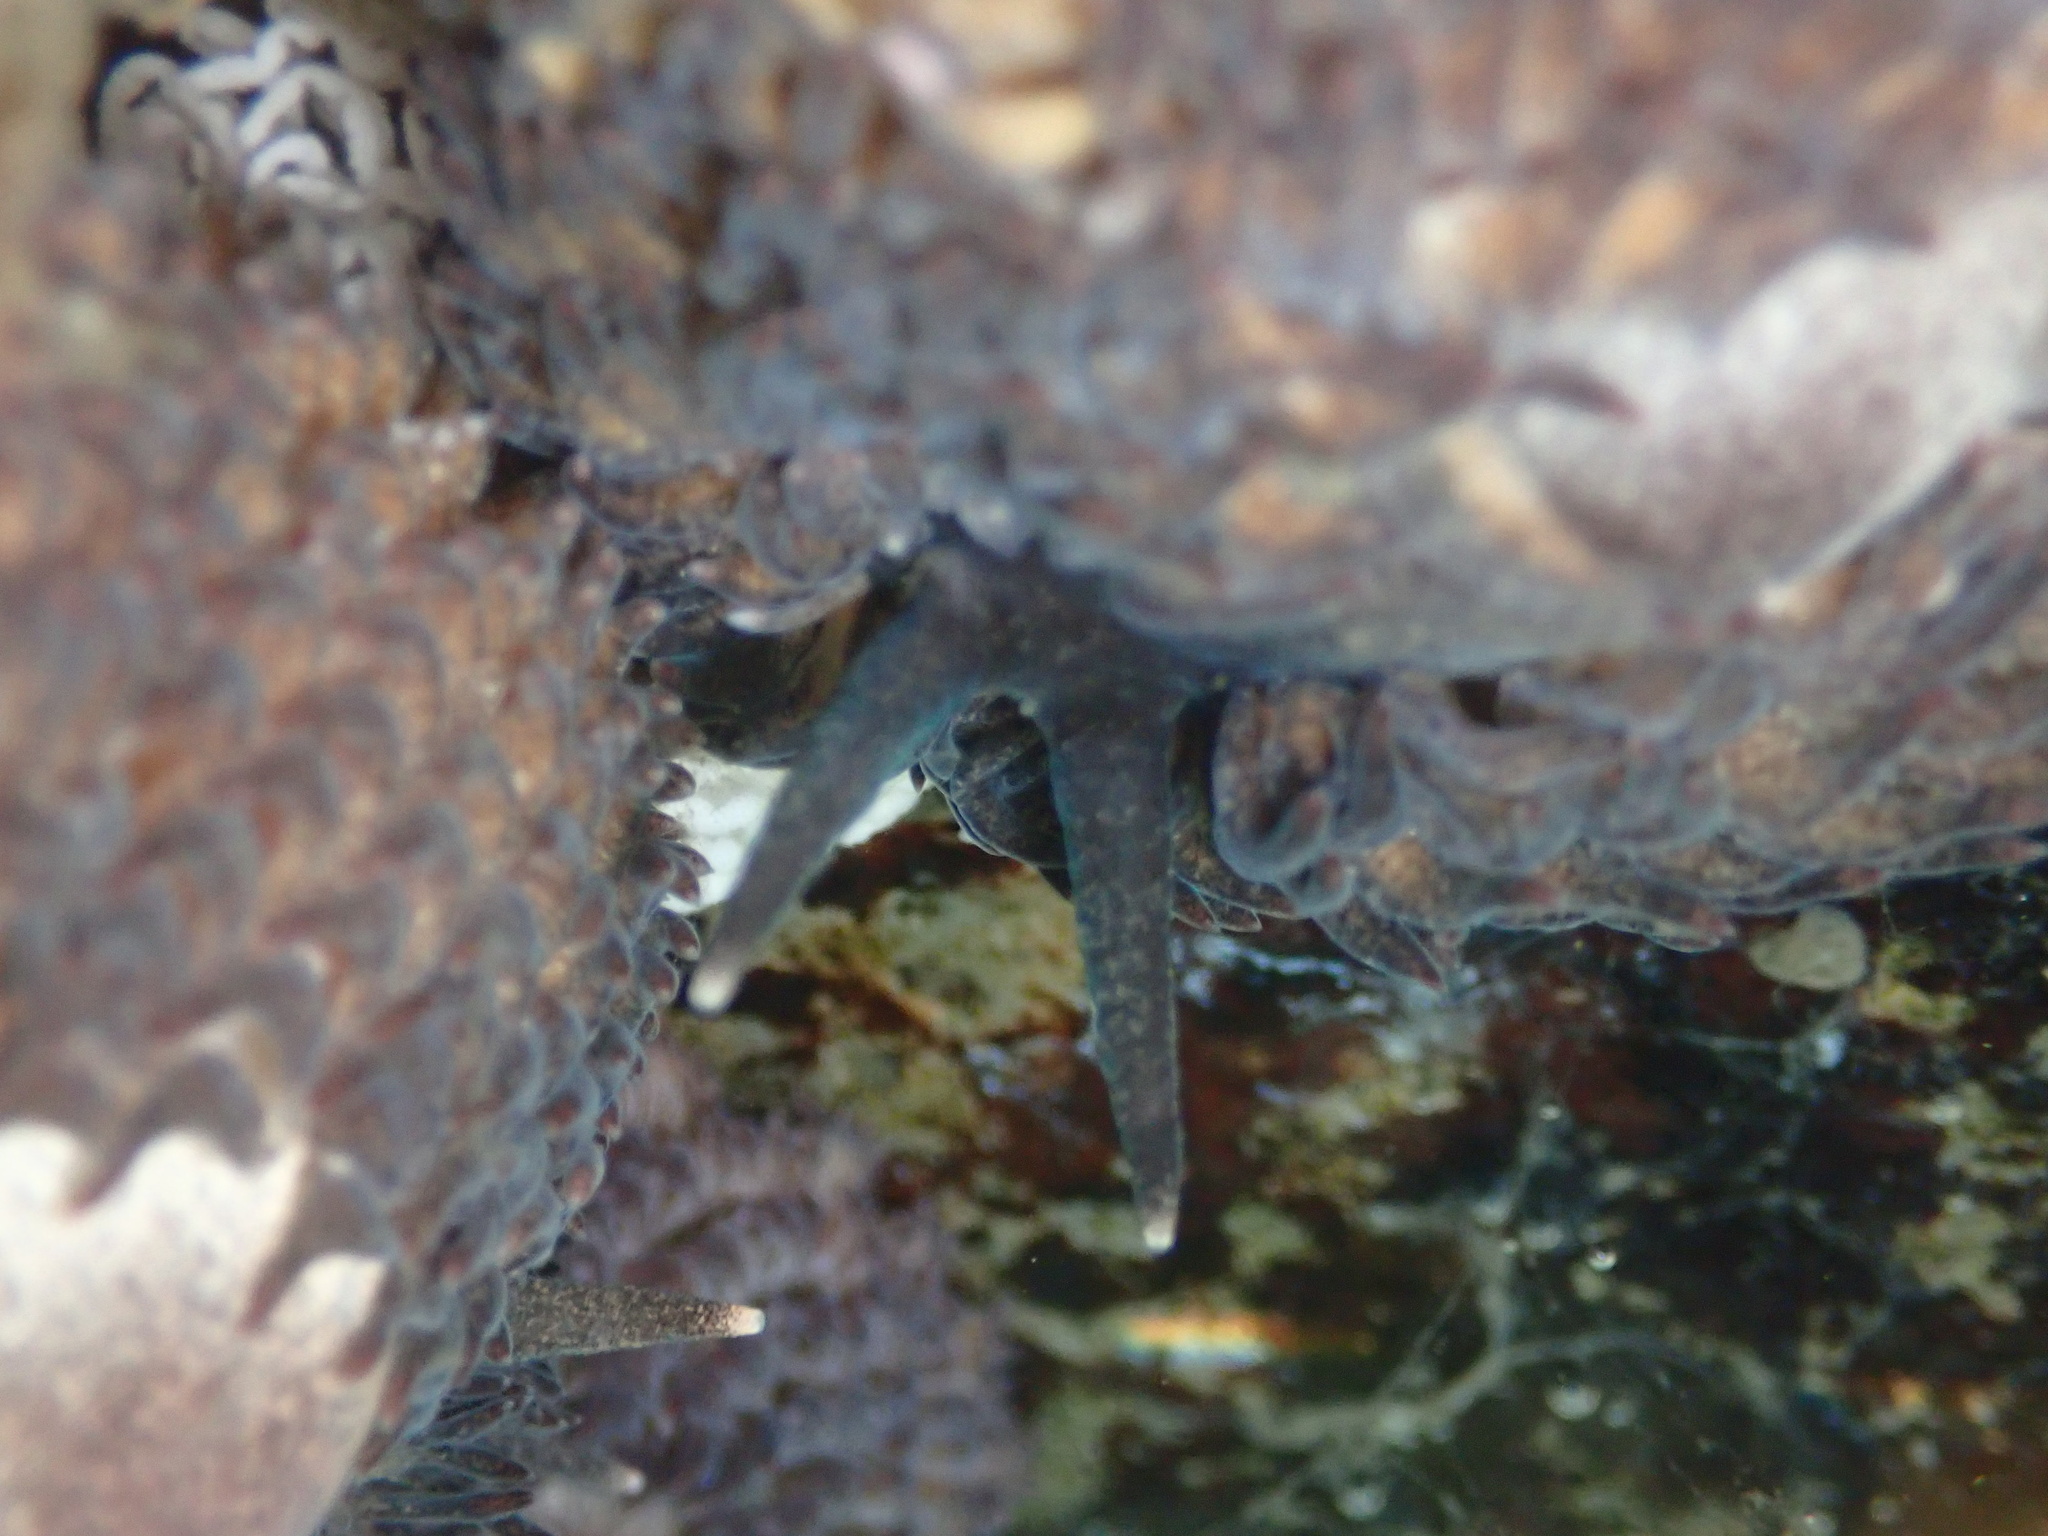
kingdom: Animalia
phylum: Mollusca
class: Gastropoda
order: Nudibranchia
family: Aeolidiidae
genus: Aeolidia
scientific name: Aeolidia papillosa
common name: Common grey sea slug
